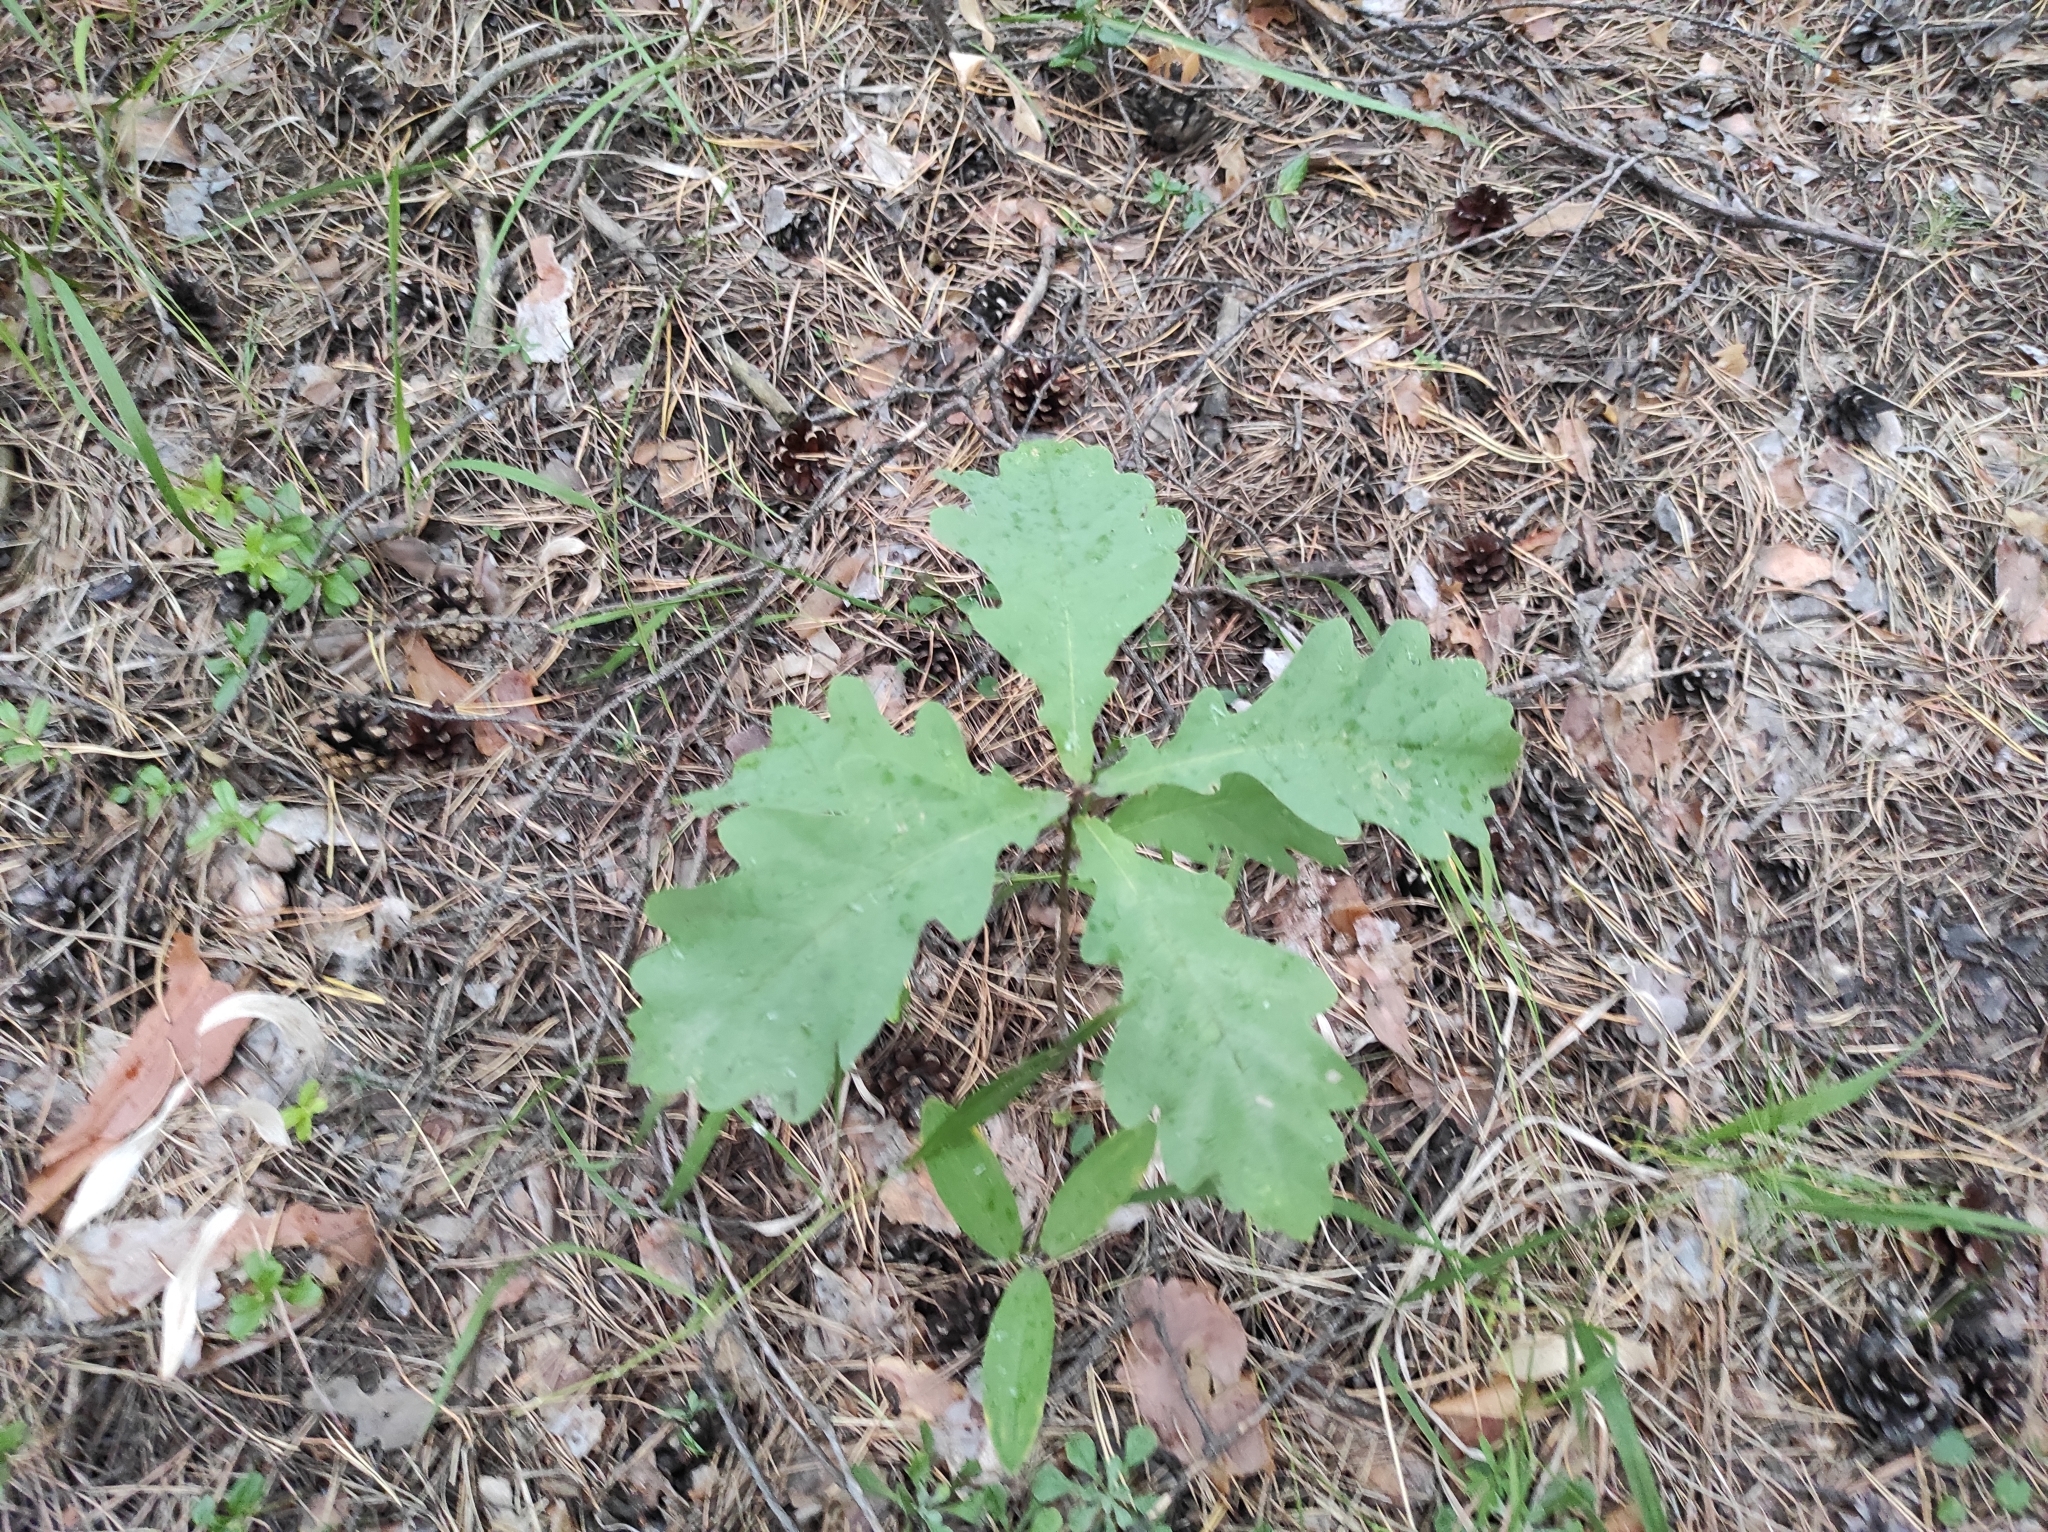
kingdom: Plantae
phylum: Tracheophyta
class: Magnoliopsida
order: Fagales
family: Fagaceae
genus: Quercus
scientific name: Quercus robur
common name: Pedunculate oak
